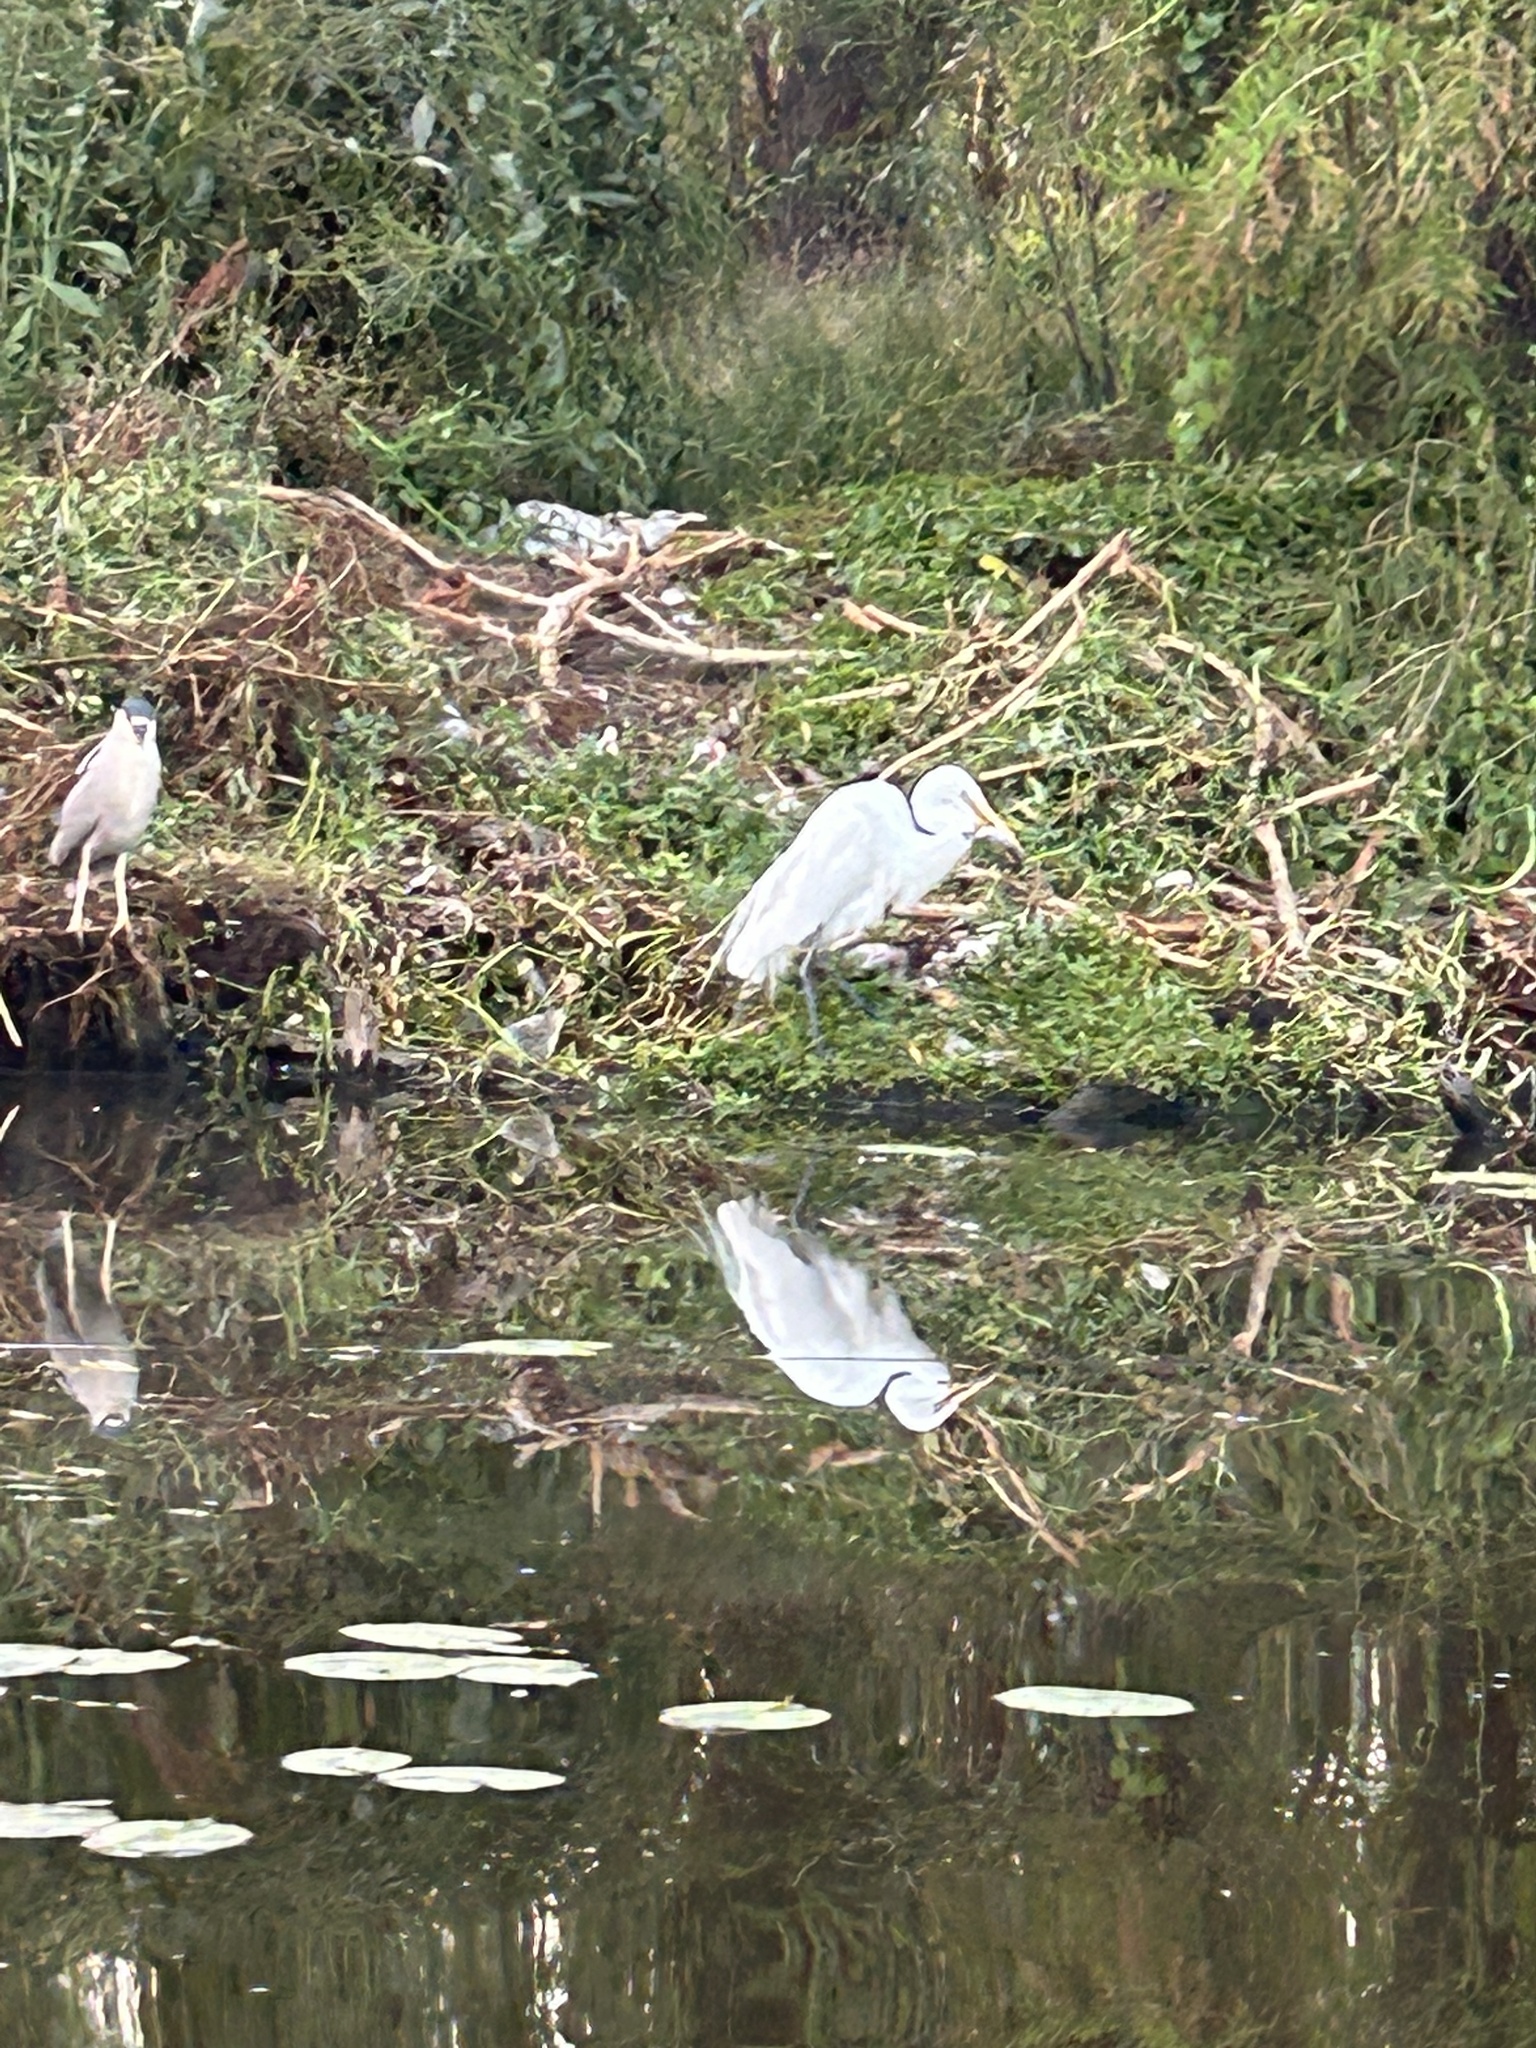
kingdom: Animalia
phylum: Chordata
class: Aves
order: Pelecaniformes
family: Ardeidae
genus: Ardea
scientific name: Ardea alba
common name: Great egret
